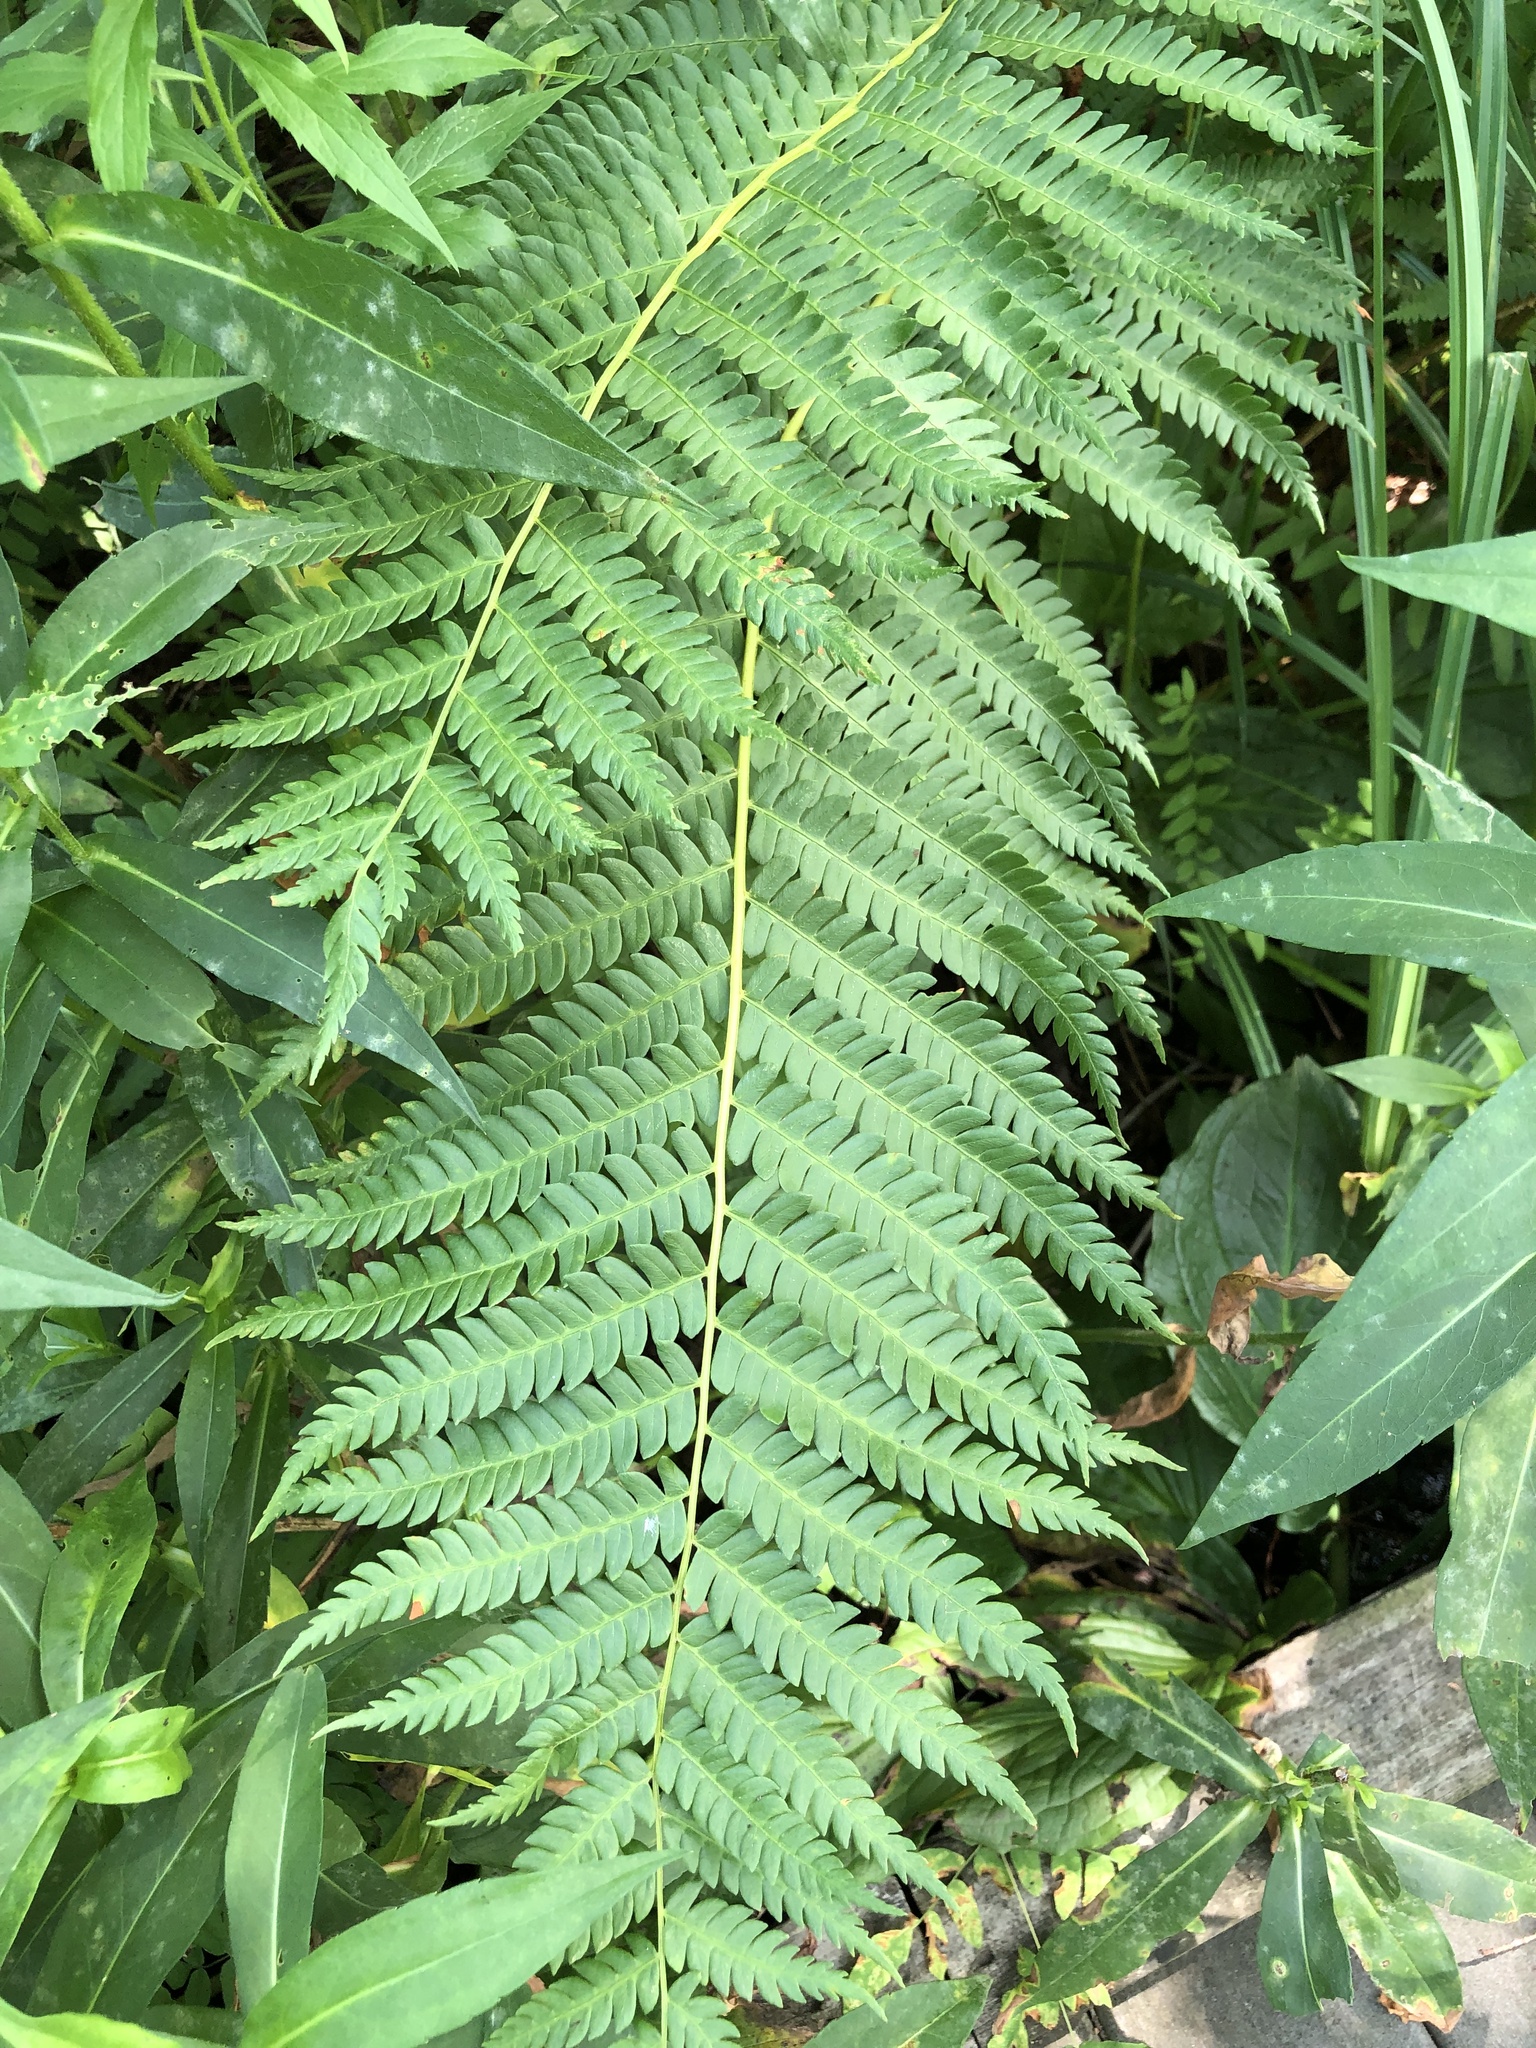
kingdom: Plantae
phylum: Tracheophyta
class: Polypodiopsida
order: Osmundales
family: Osmundaceae
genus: Osmundastrum
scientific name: Osmundastrum cinnamomeum
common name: Cinnamon fern
